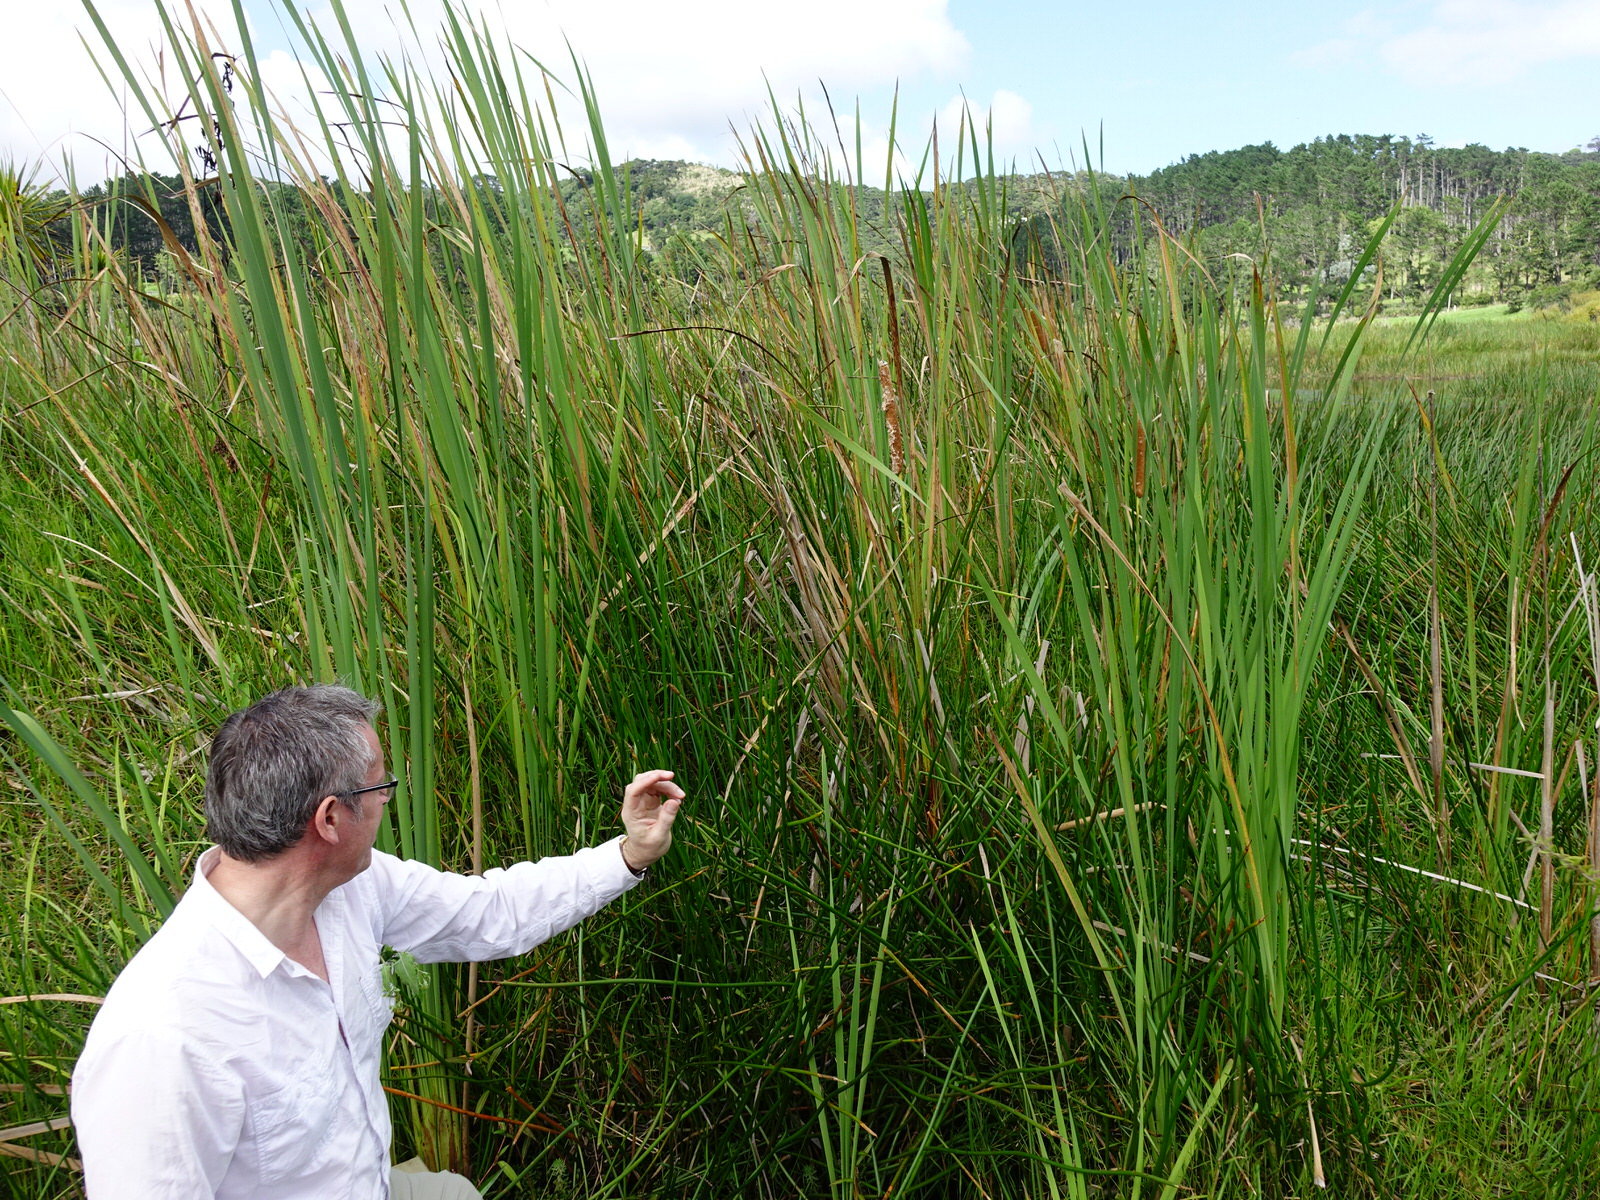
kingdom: Plantae
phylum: Tracheophyta
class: Liliopsida
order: Poales
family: Cyperaceae
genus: Eleocharis
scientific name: Eleocharis sphacelata
